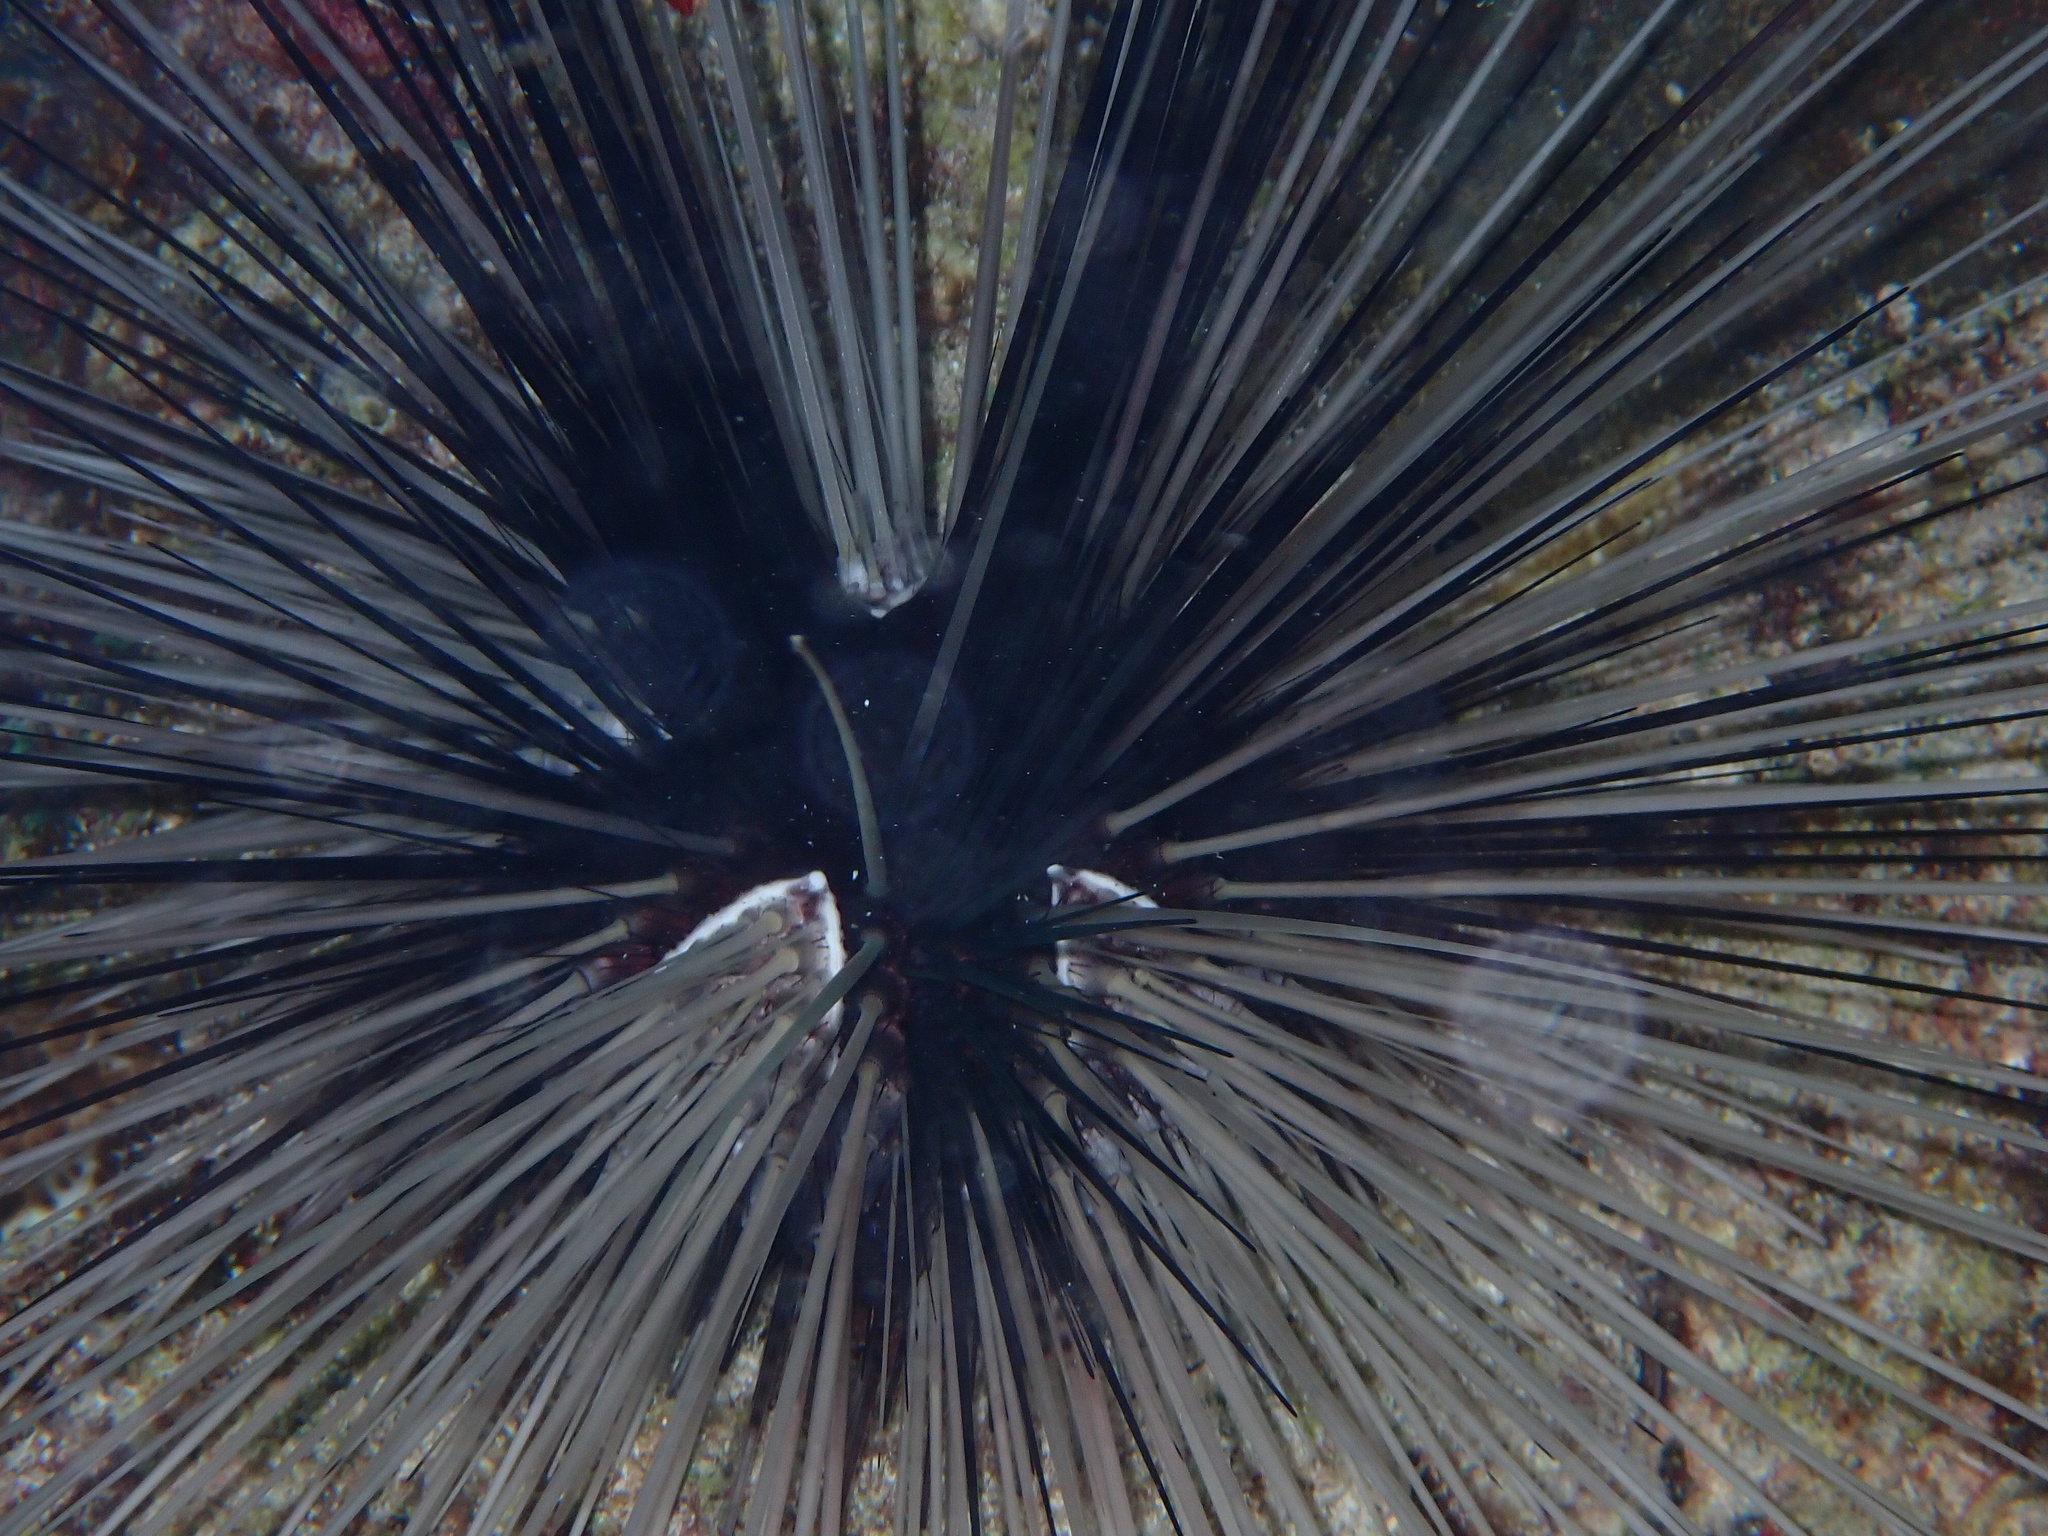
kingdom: Animalia
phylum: Echinodermata
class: Echinoidea
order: Diadematoida
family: Diadematidae
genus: Diadema
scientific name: Diadema antillarum
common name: Spiny urchin
